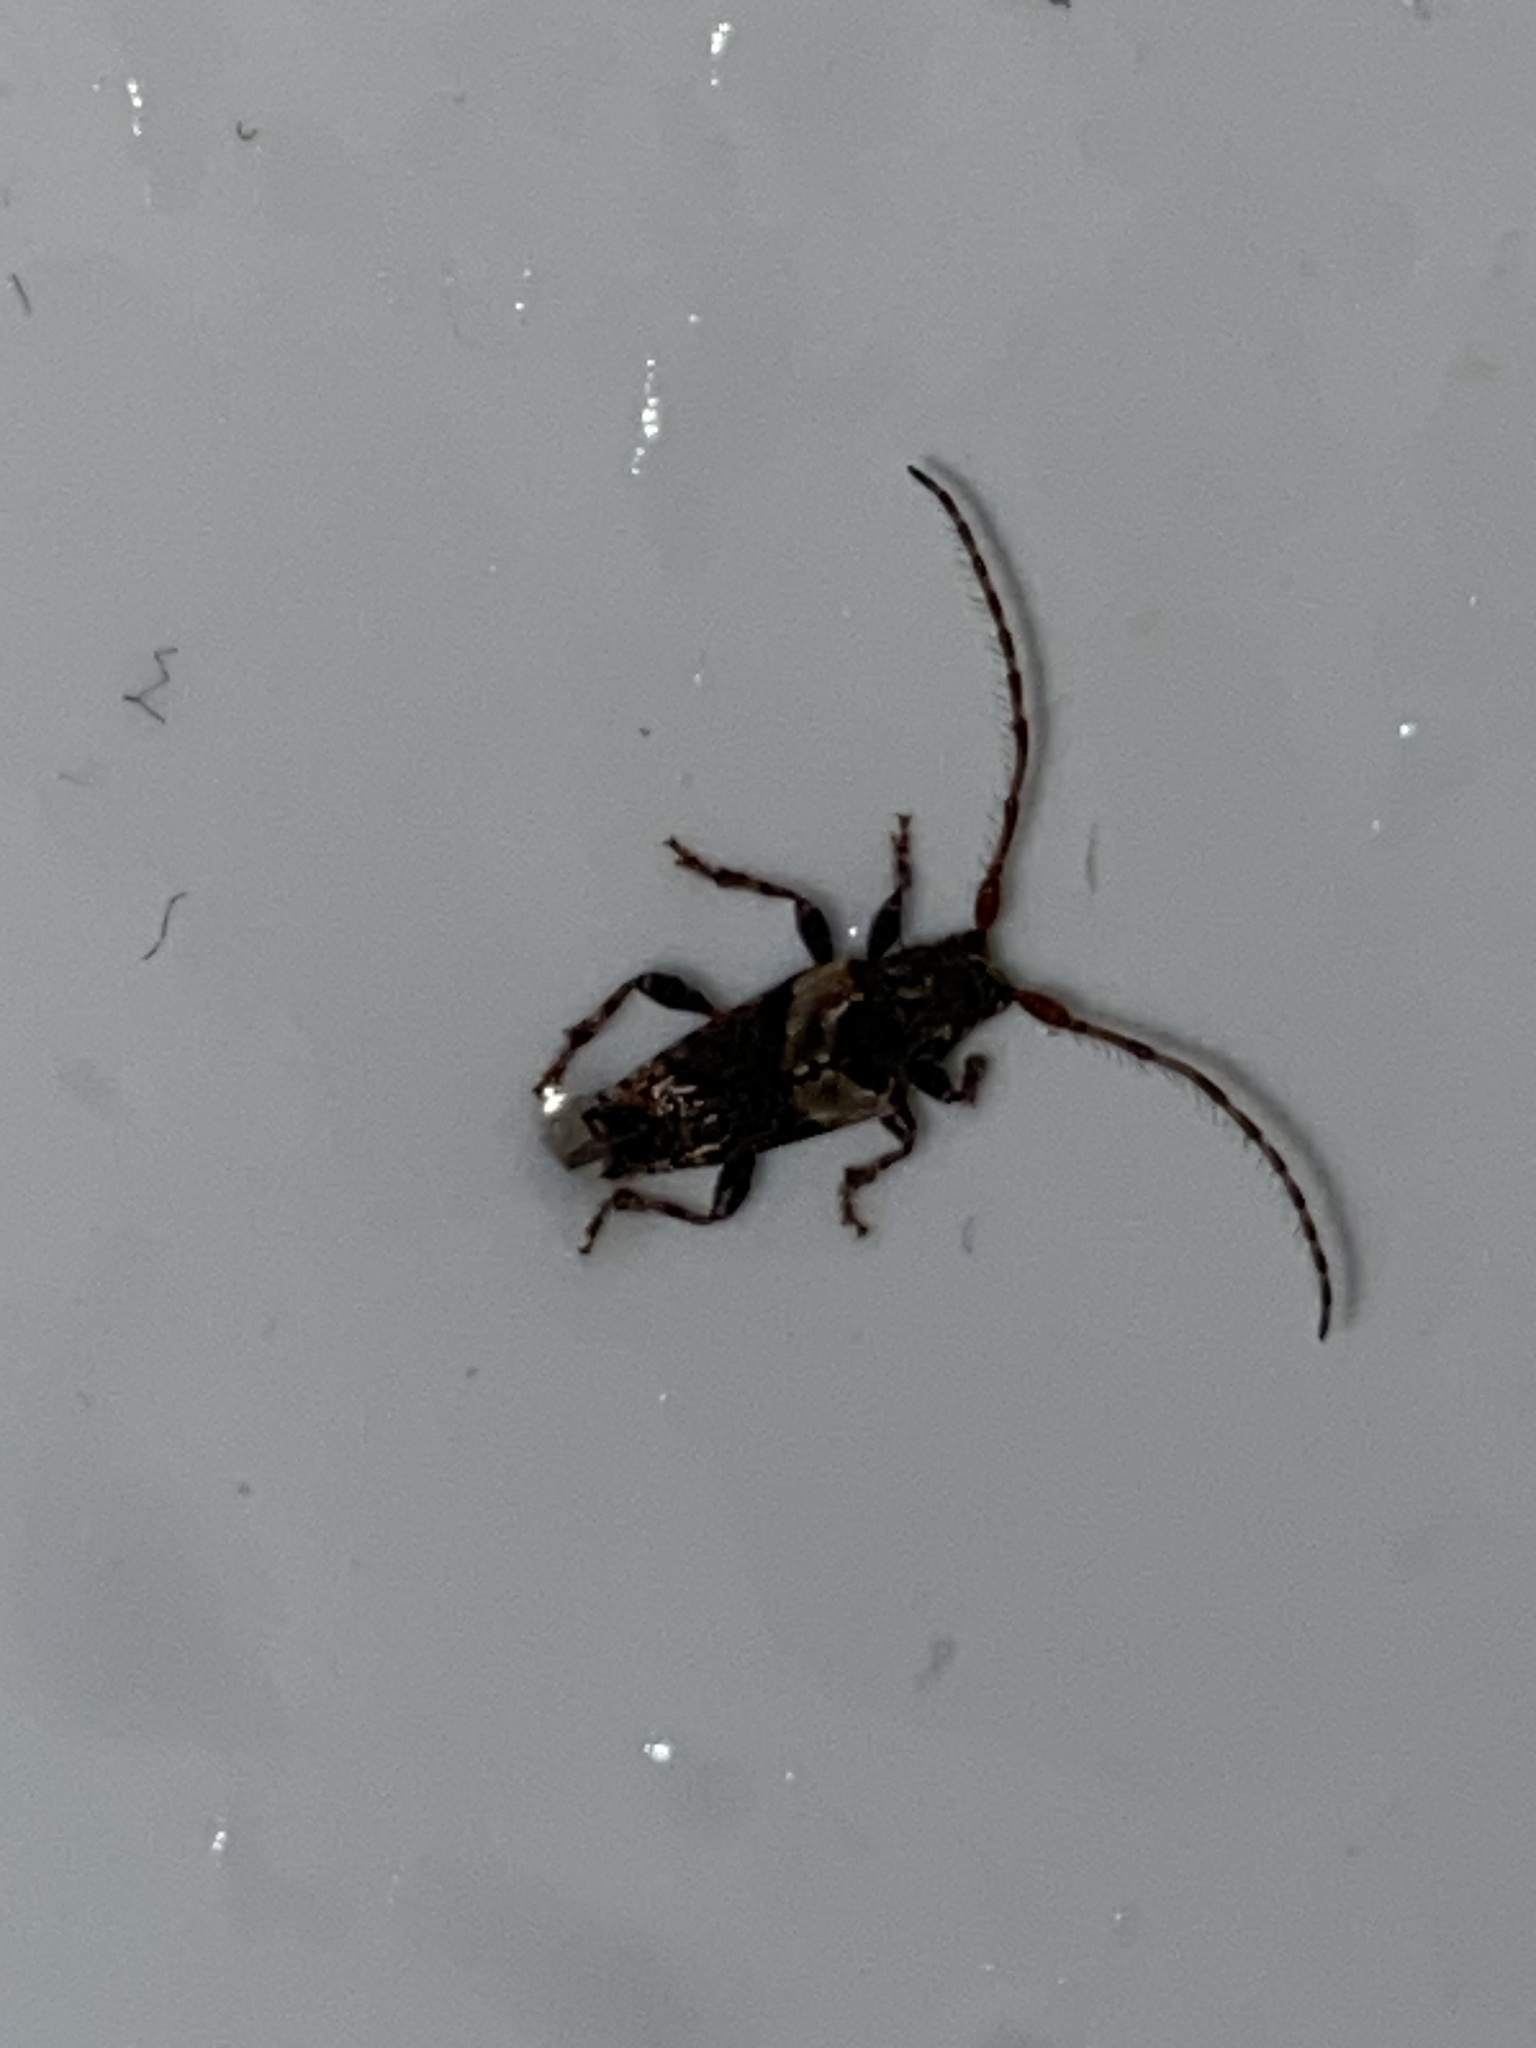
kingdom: Animalia
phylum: Arthropoda
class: Insecta
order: Coleoptera
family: Cerambycidae
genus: Pogonocherus
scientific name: Pogonocherus hispidus
